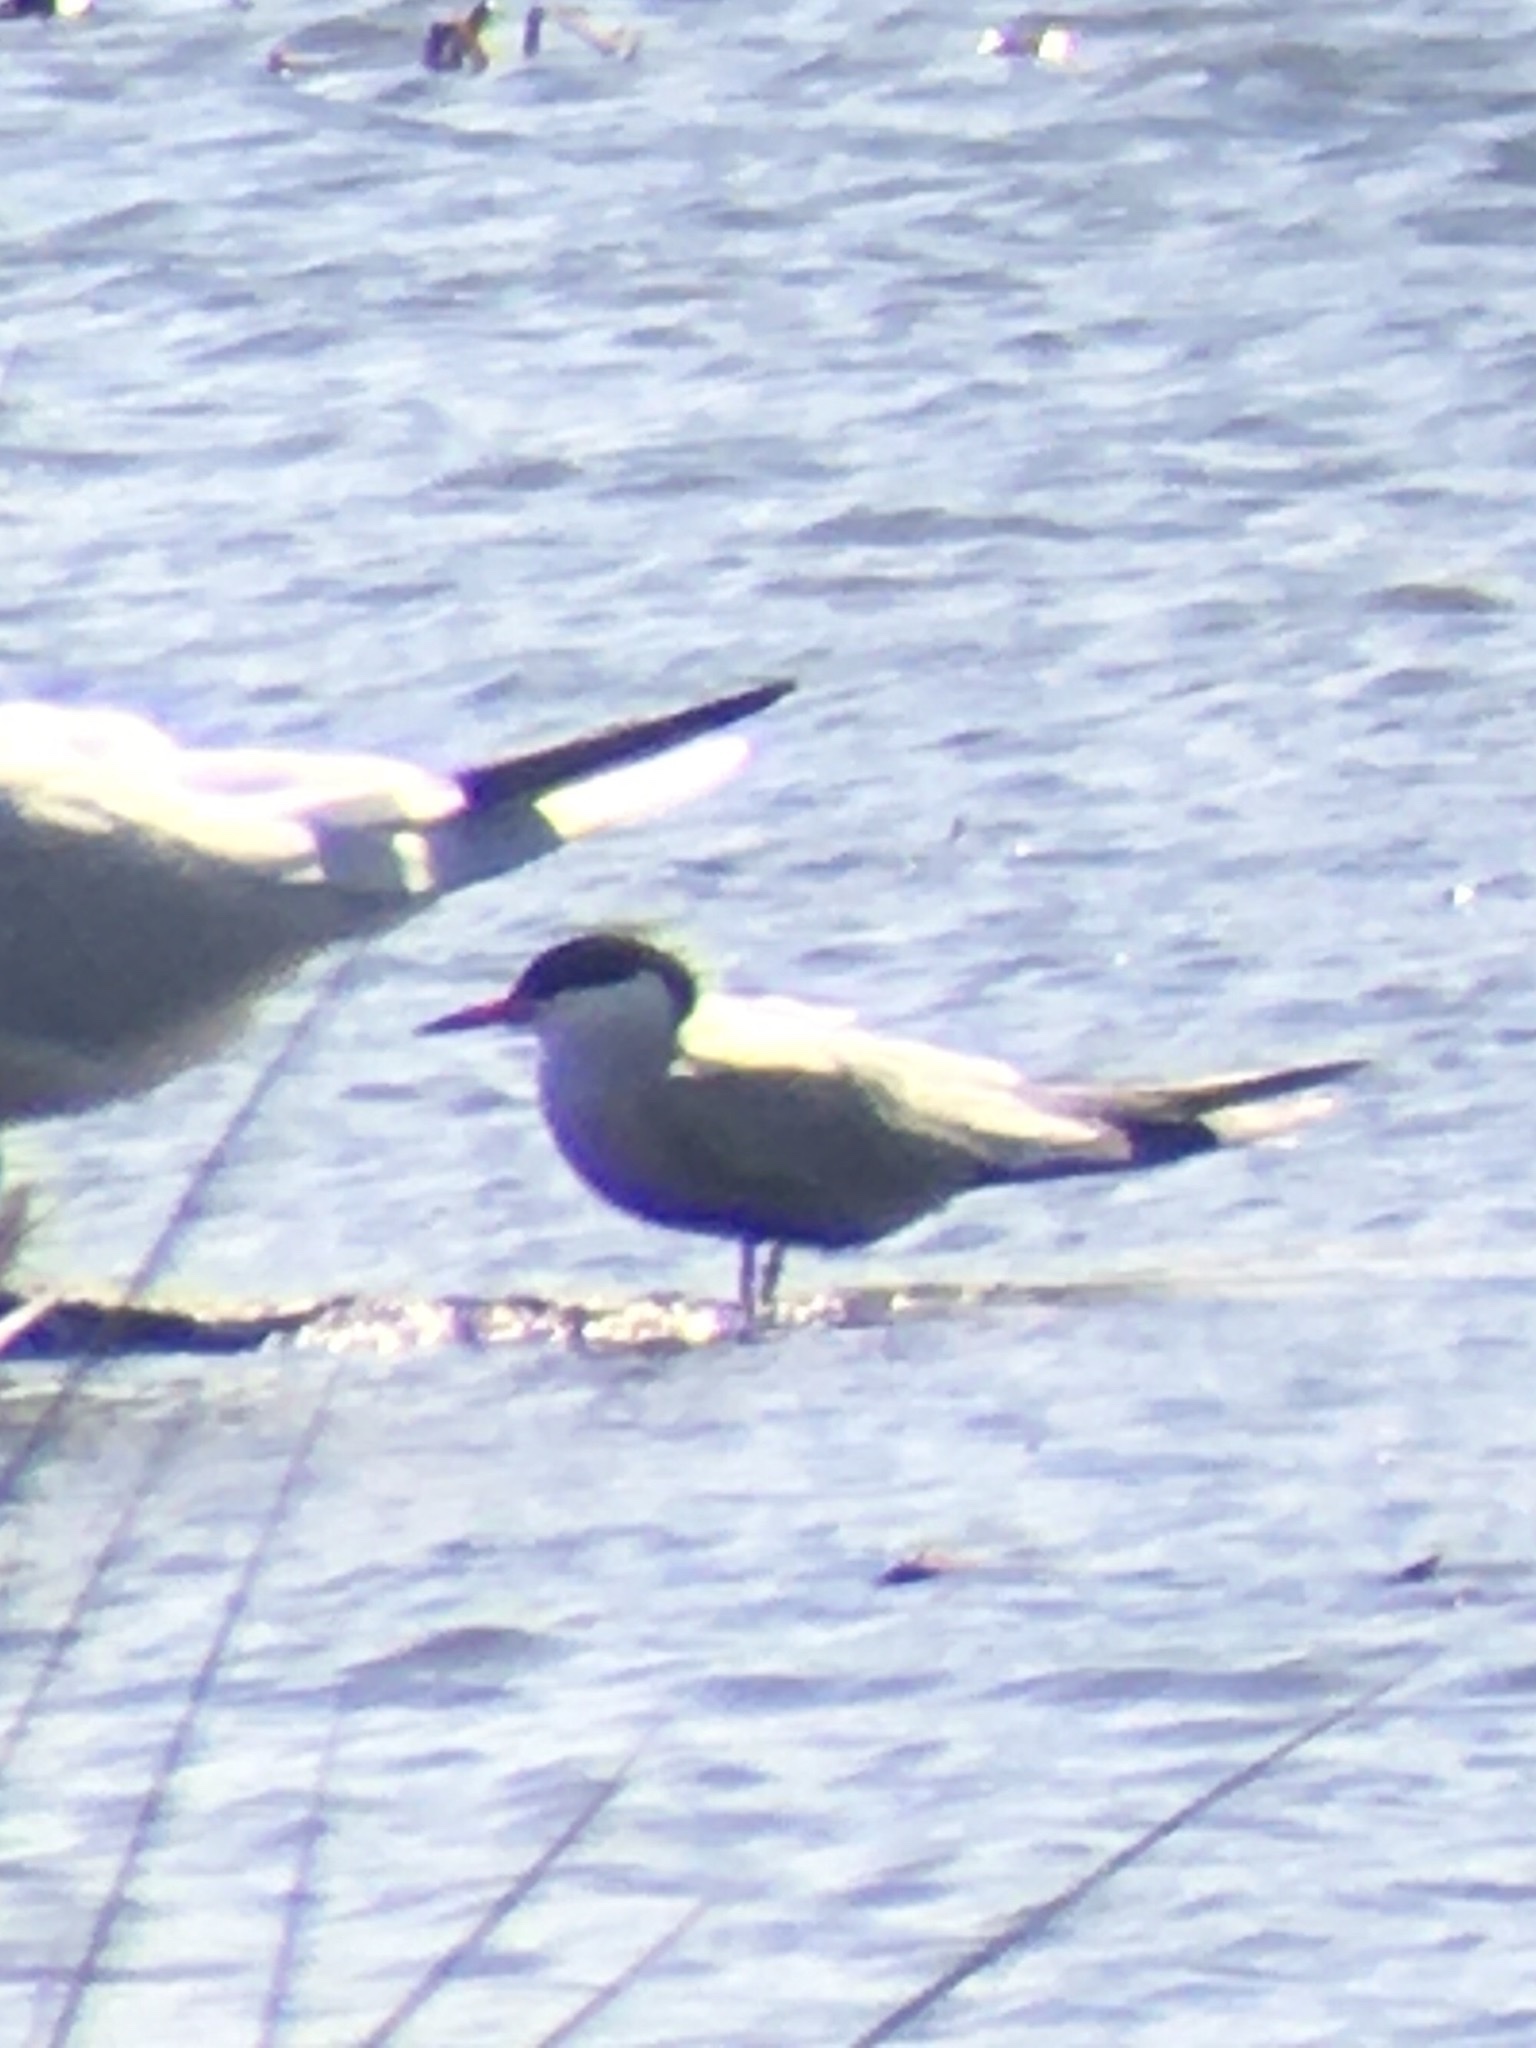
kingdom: Animalia
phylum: Chordata
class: Aves
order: Charadriiformes
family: Laridae
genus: Sterna
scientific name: Sterna hirundo
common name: Common tern
